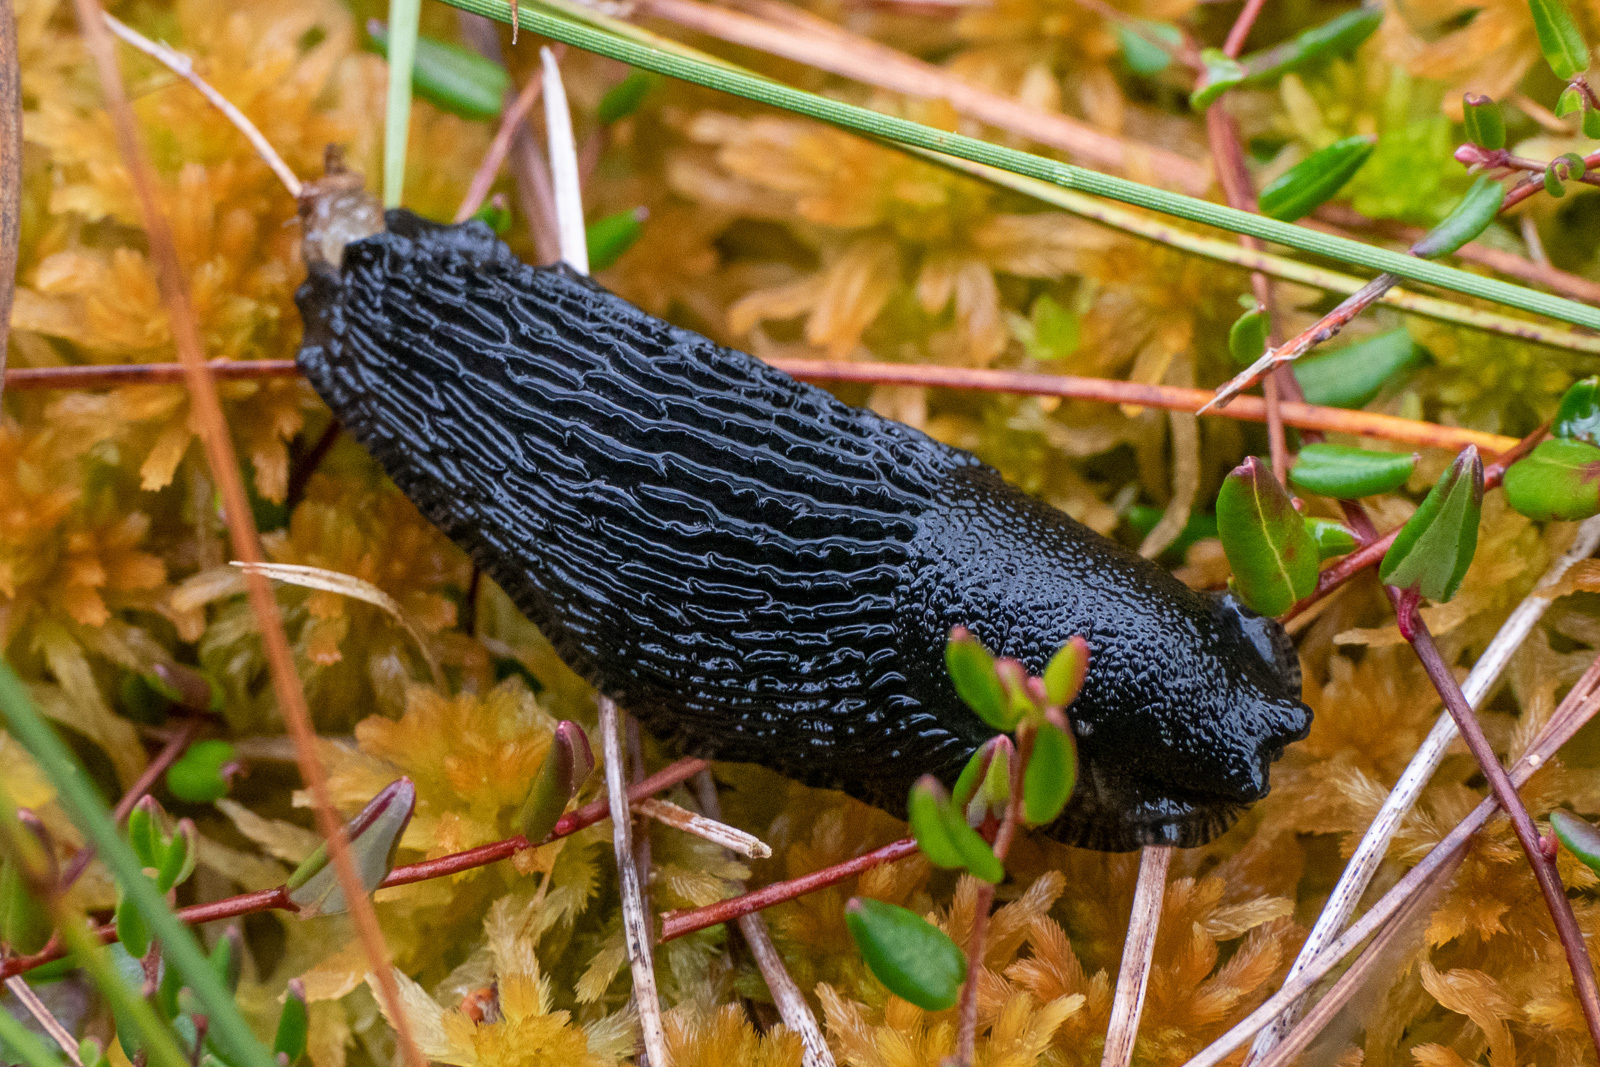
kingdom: Animalia
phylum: Mollusca
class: Gastropoda
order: Stylommatophora
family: Arionidae
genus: Arion
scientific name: Arion ater
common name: Black arion
